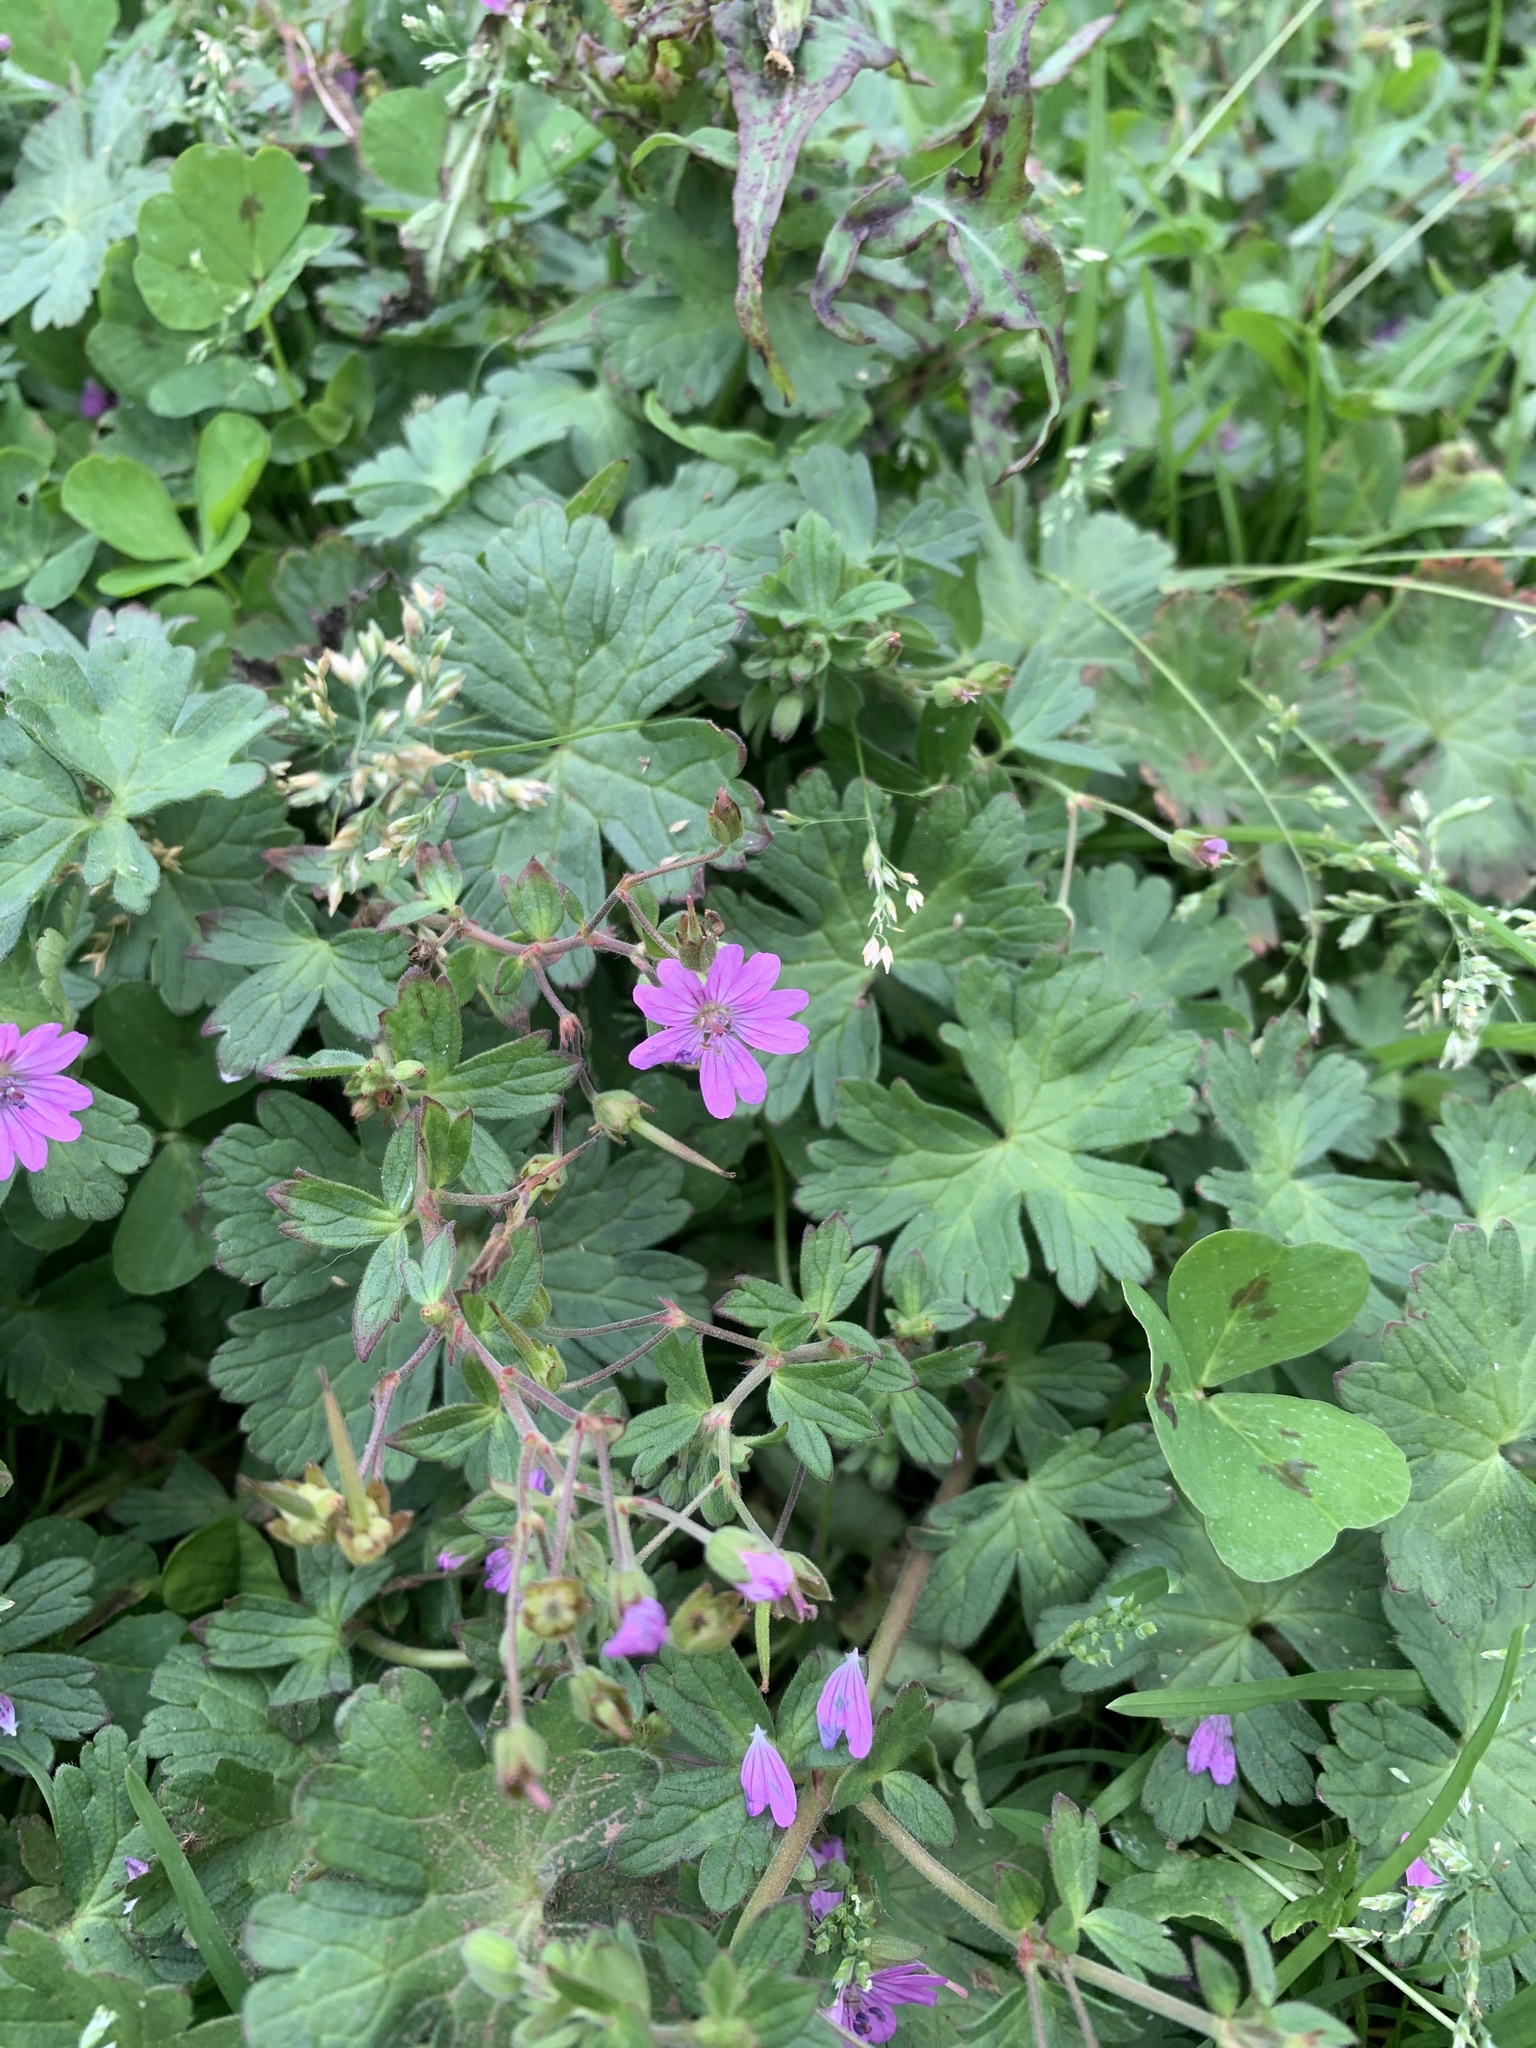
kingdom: Plantae
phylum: Tracheophyta
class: Magnoliopsida
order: Geraniales
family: Geraniaceae
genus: Geranium
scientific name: Geranium pyrenaicum
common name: Hedgerow crane's-bill
